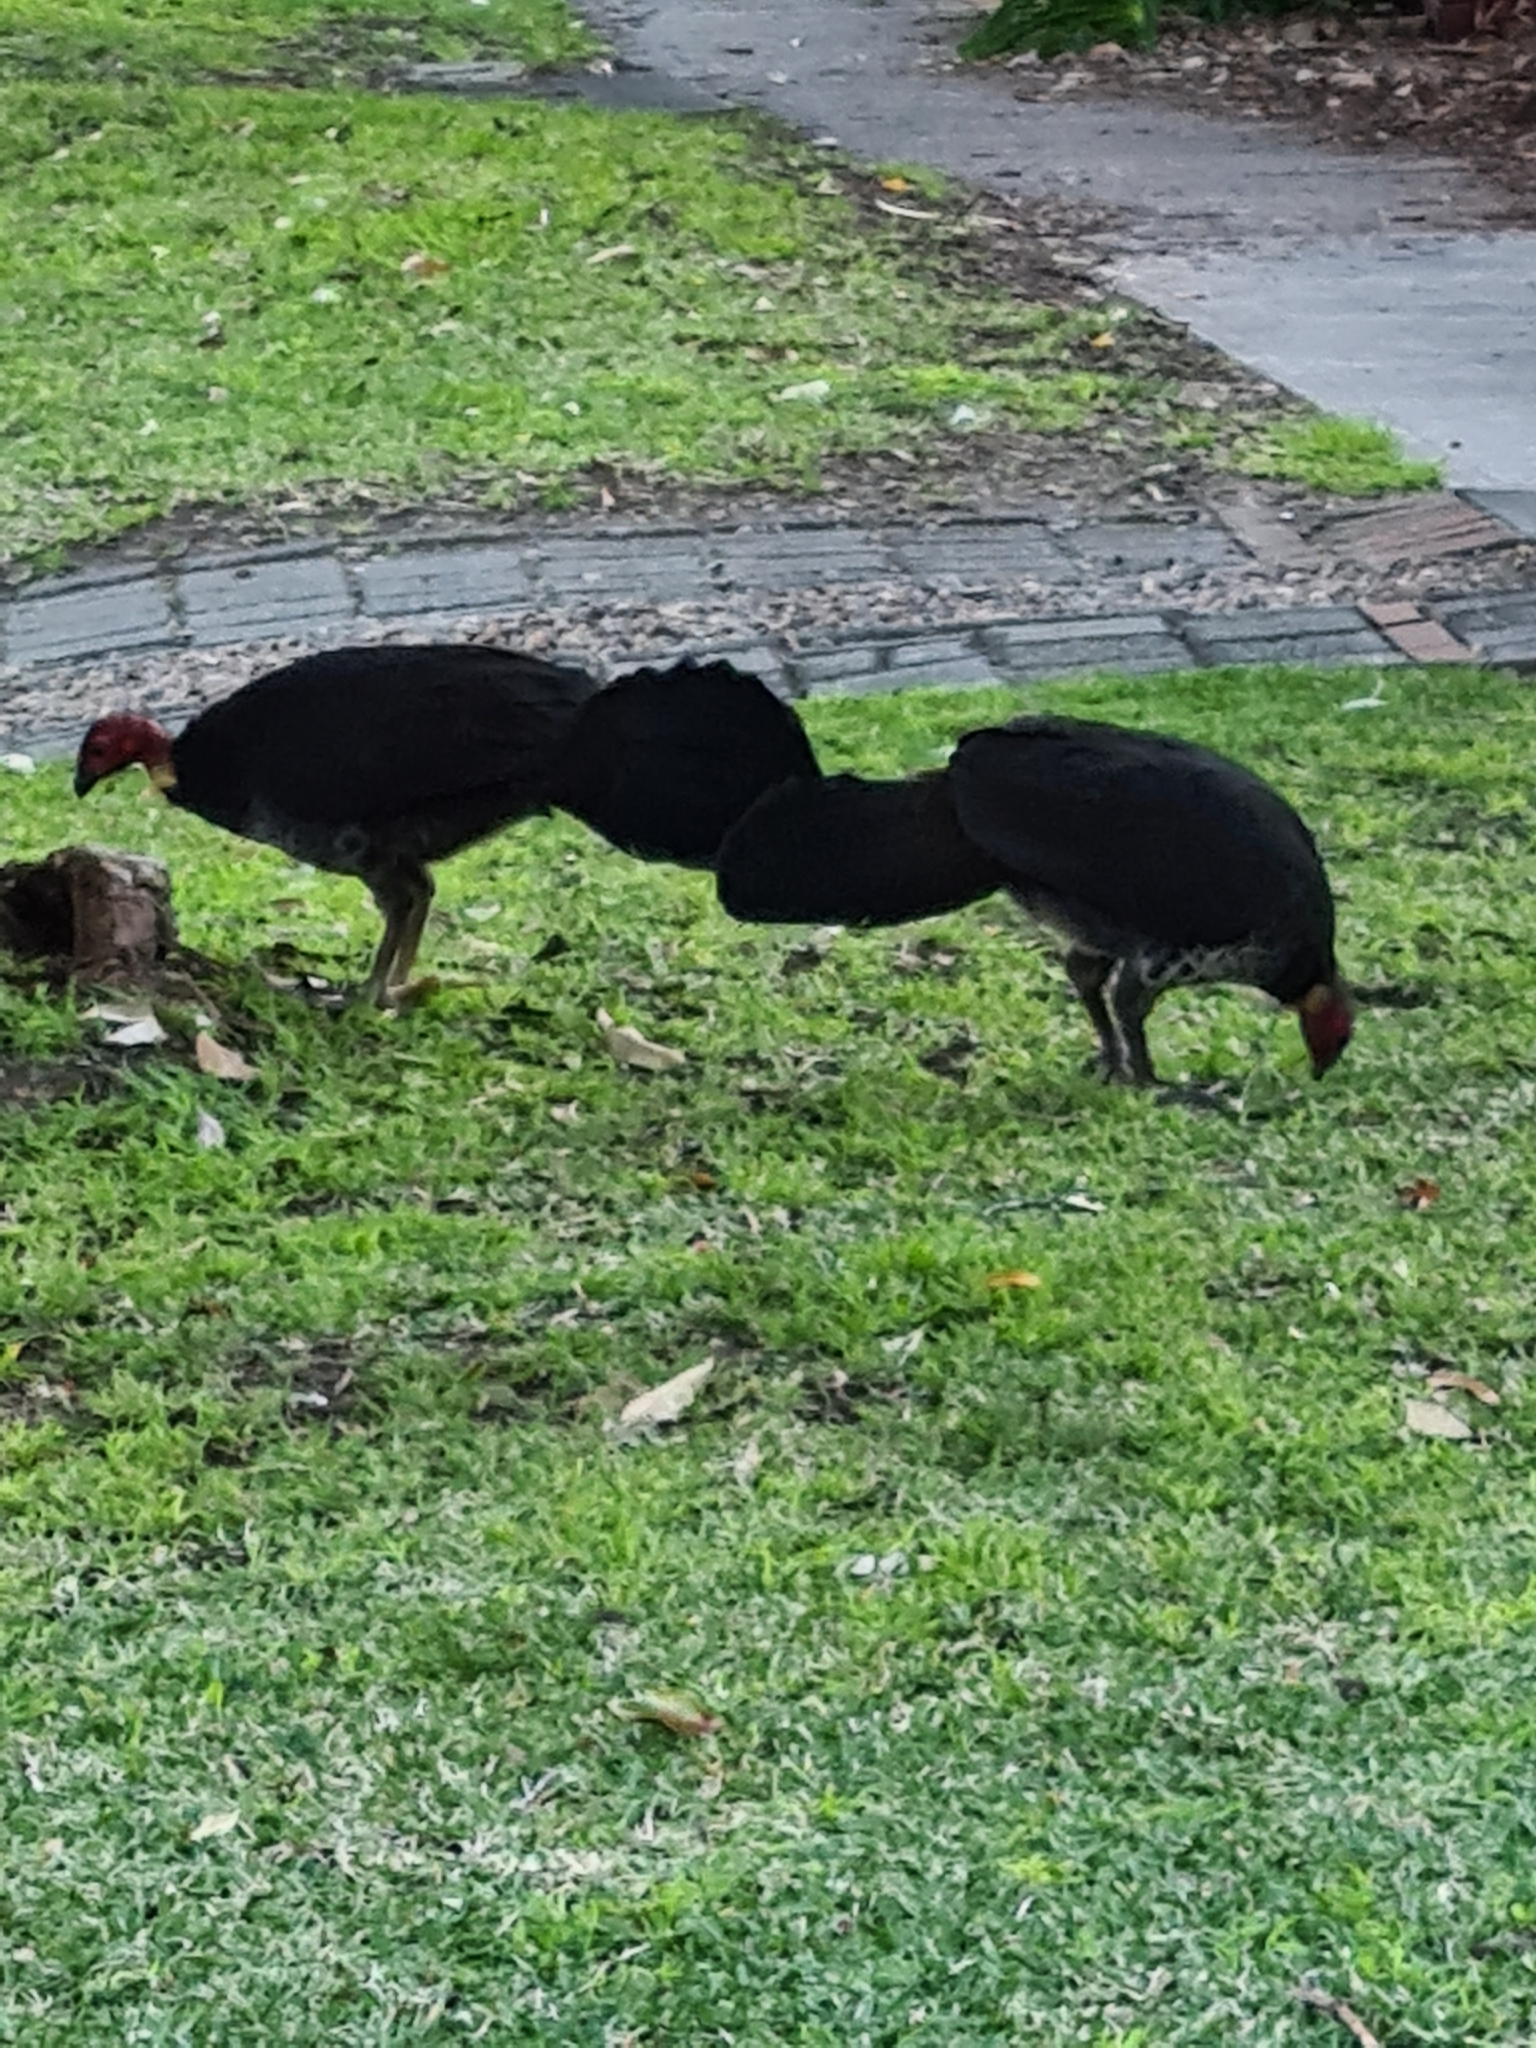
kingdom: Animalia
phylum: Chordata
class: Aves
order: Galliformes
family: Megapodiidae
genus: Alectura
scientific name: Alectura lathami
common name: Australian brushturkey
